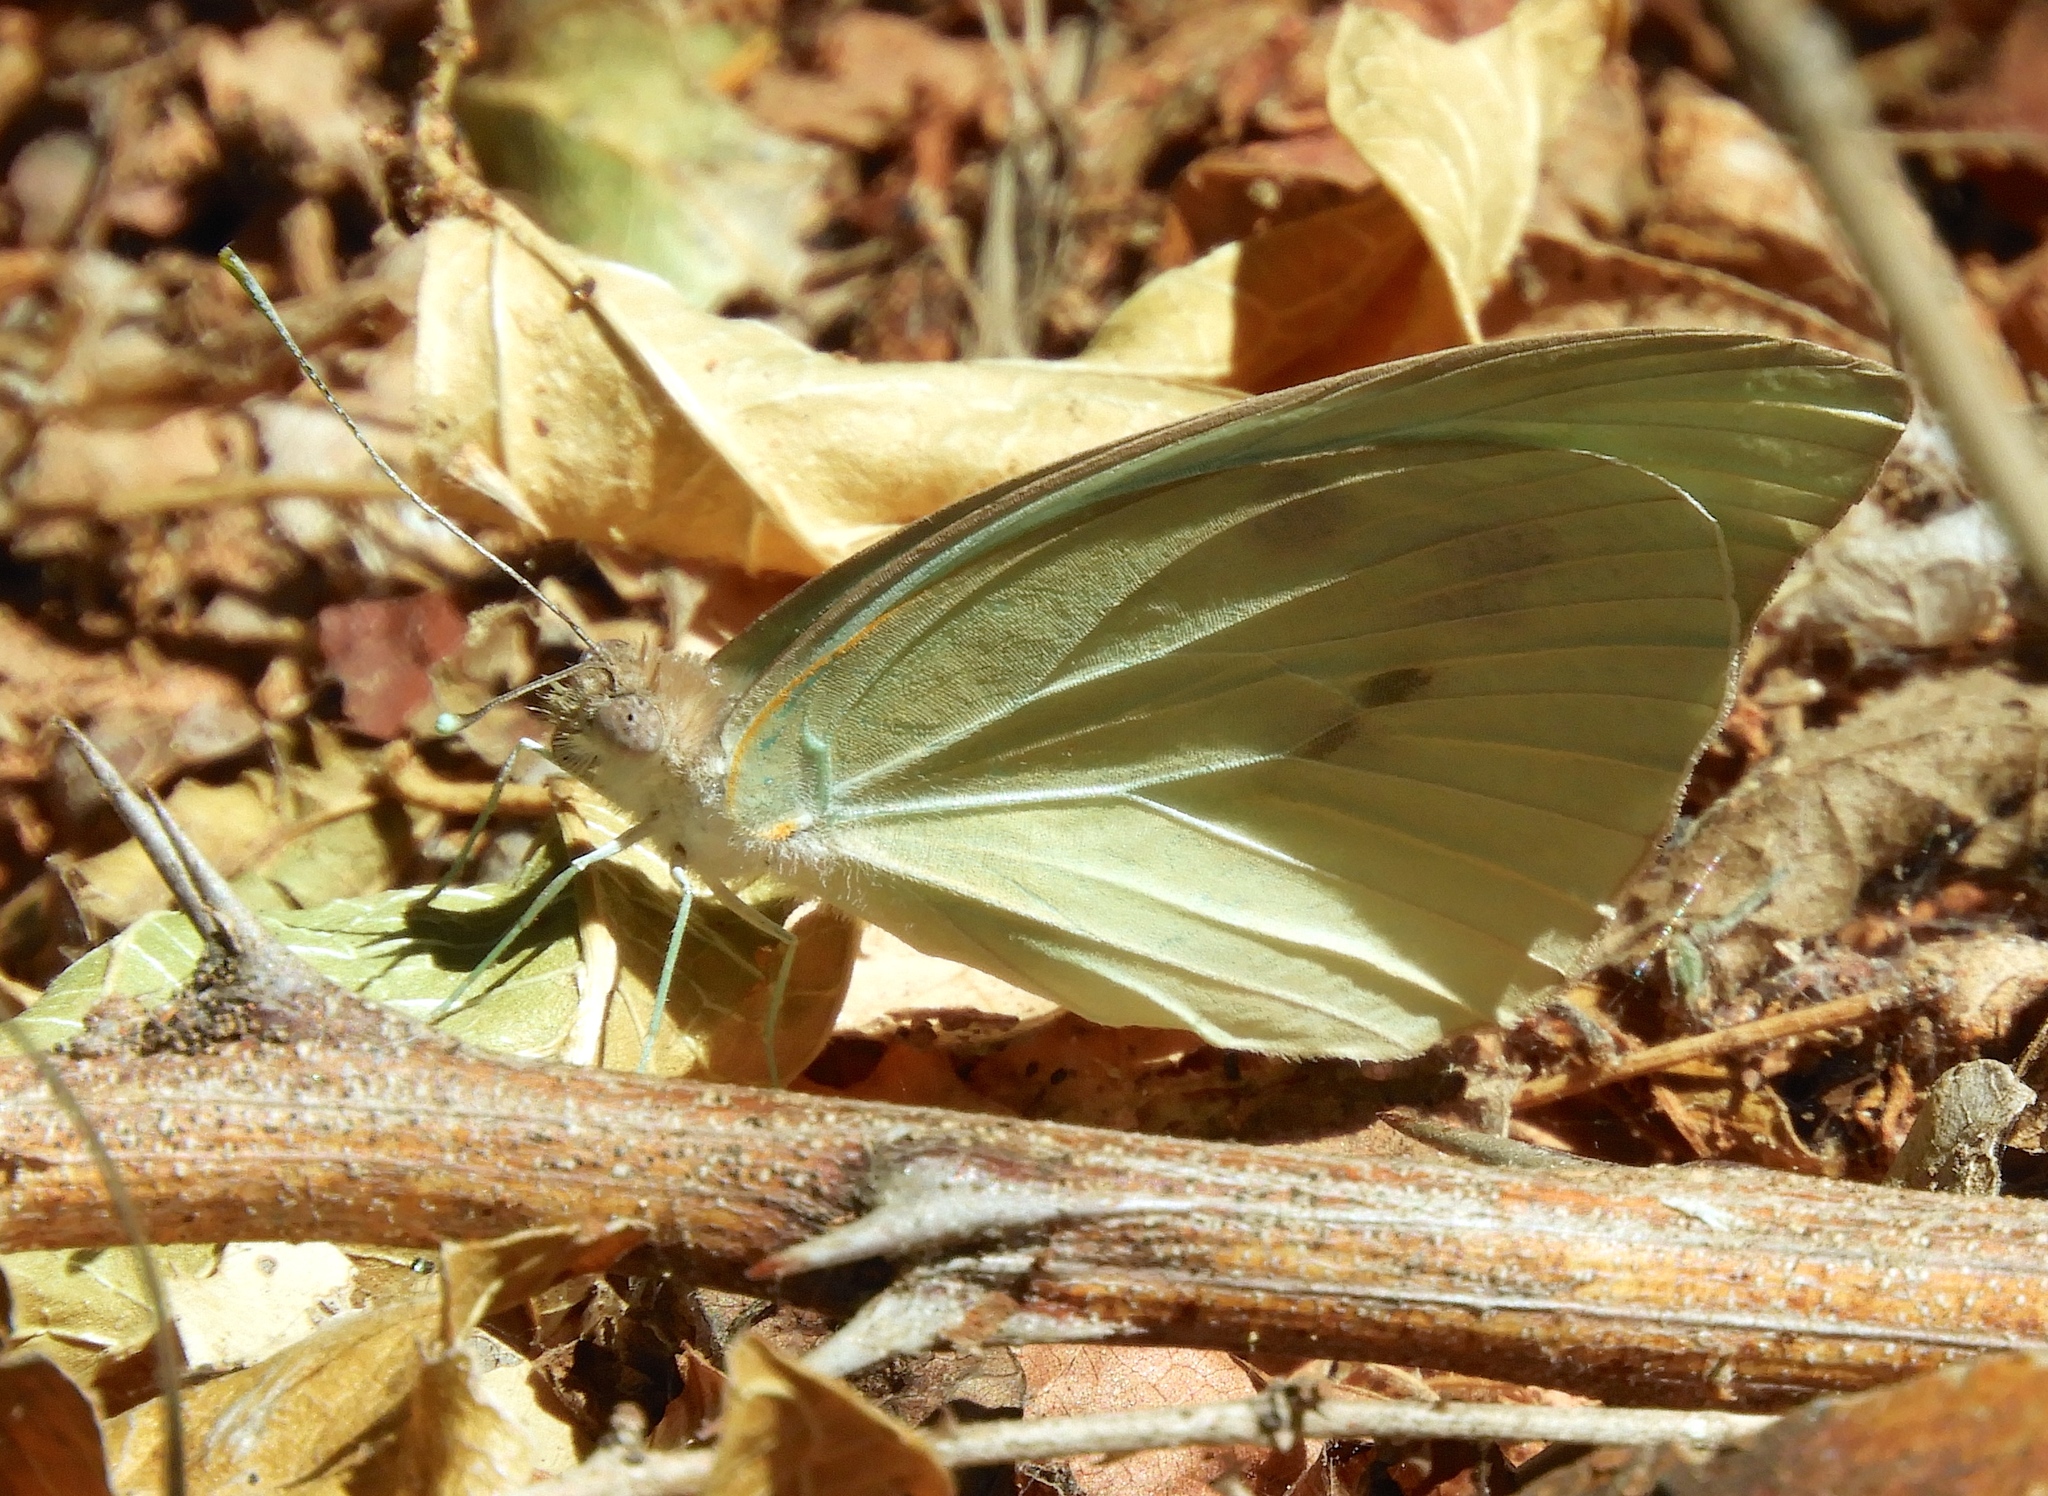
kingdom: Animalia
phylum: Arthropoda
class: Insecta
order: Lepidoptera
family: Pieridae
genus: Ganyra
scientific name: Ganyra josephina
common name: Giant white
